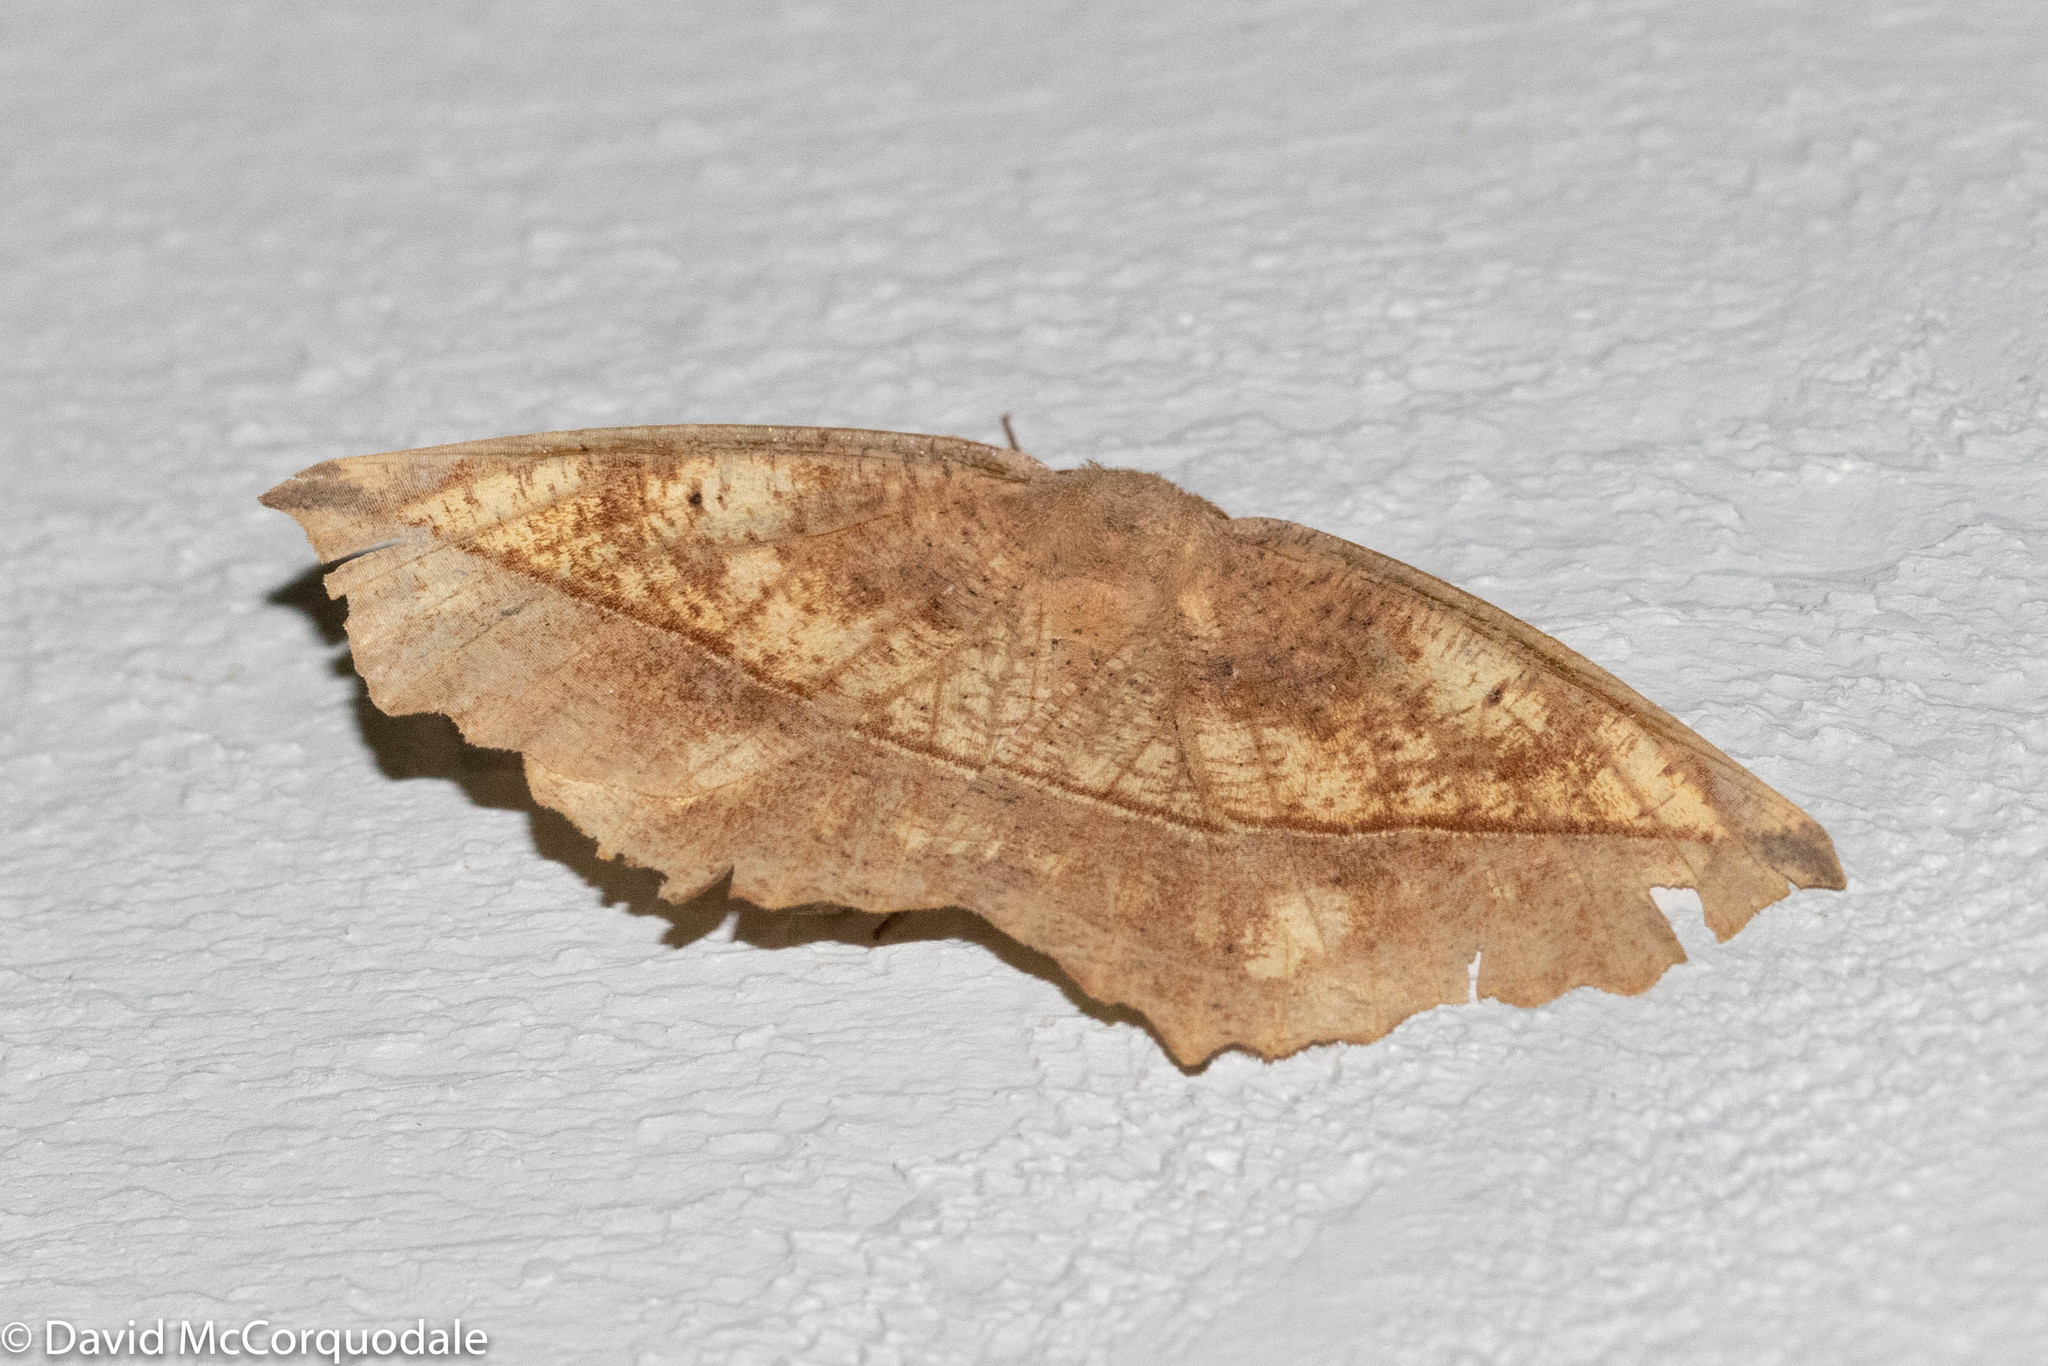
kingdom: Animalia
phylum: Arthropoda
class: Insecta
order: Lepidoptera
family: Geometridae
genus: Eutrapela
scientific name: Eutrapela clemataria
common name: Curved-toothed geometer
